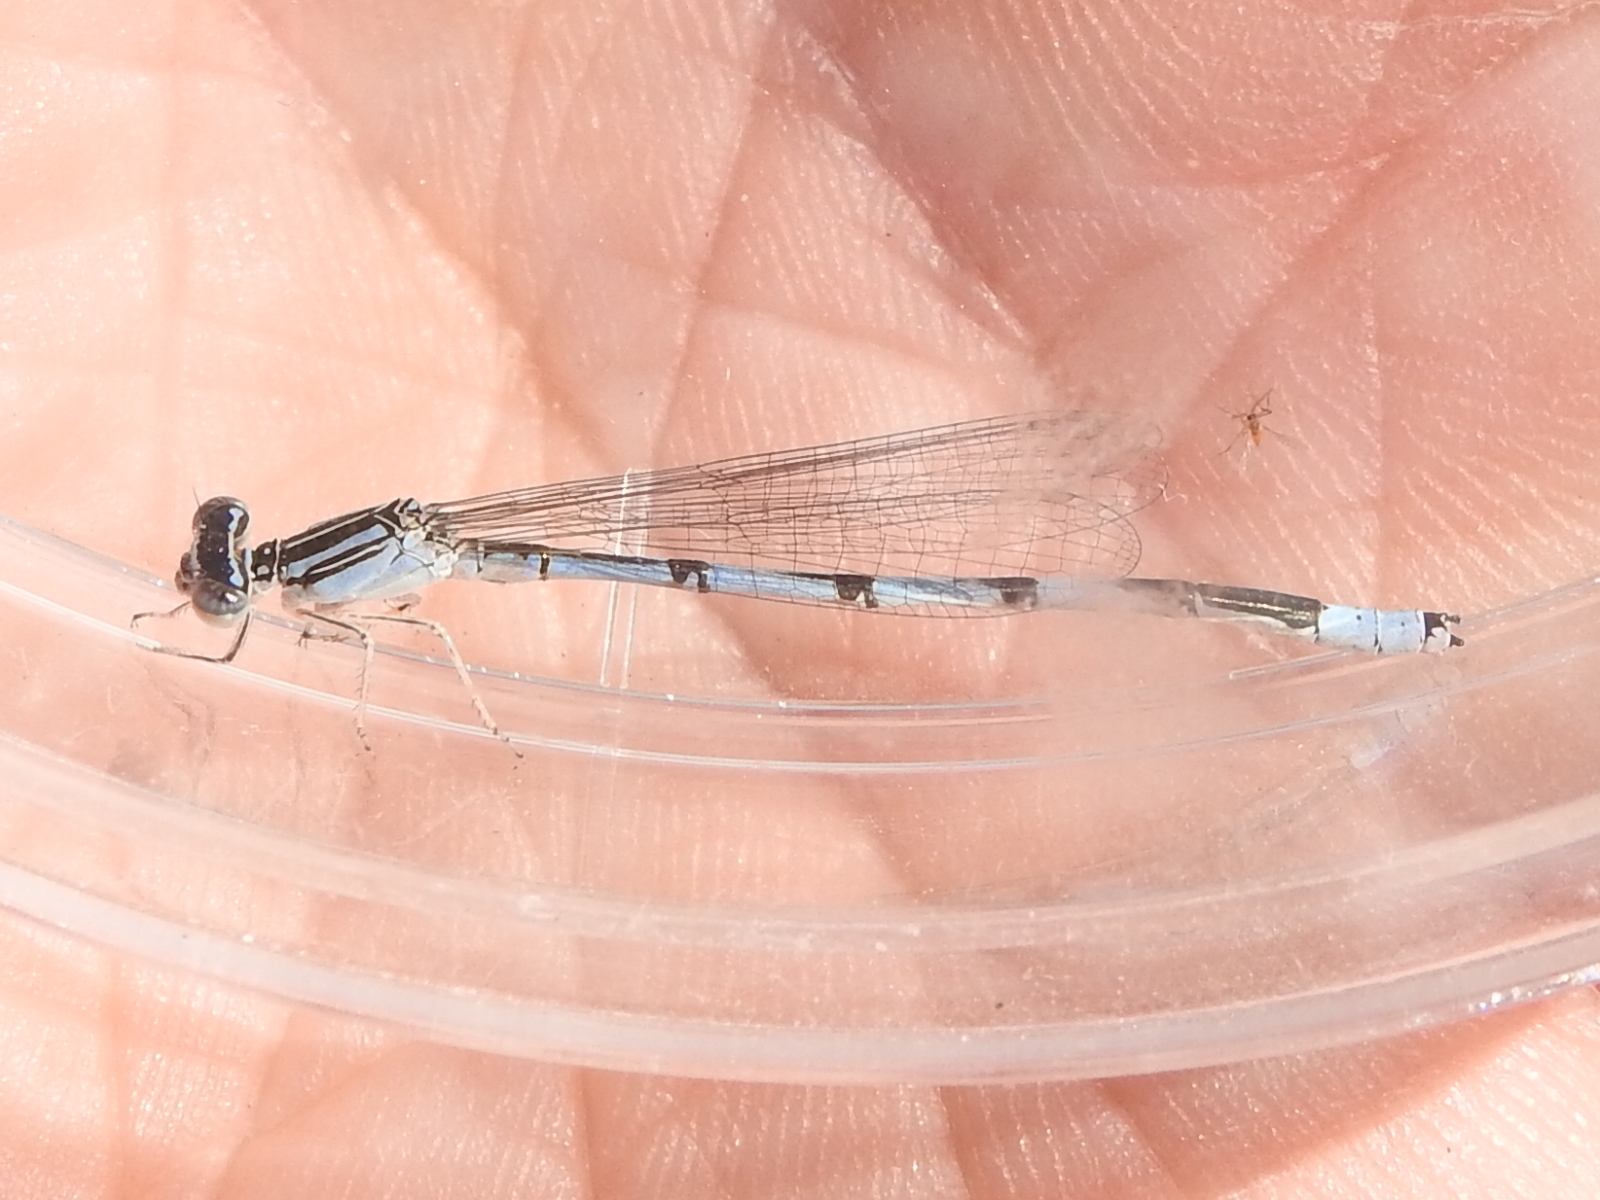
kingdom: Animalia
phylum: Arthropoda
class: Insecta
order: Odonata
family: Coenagrionidae
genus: Enallagma
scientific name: Enallagma basidens
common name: Double-striped bluet
